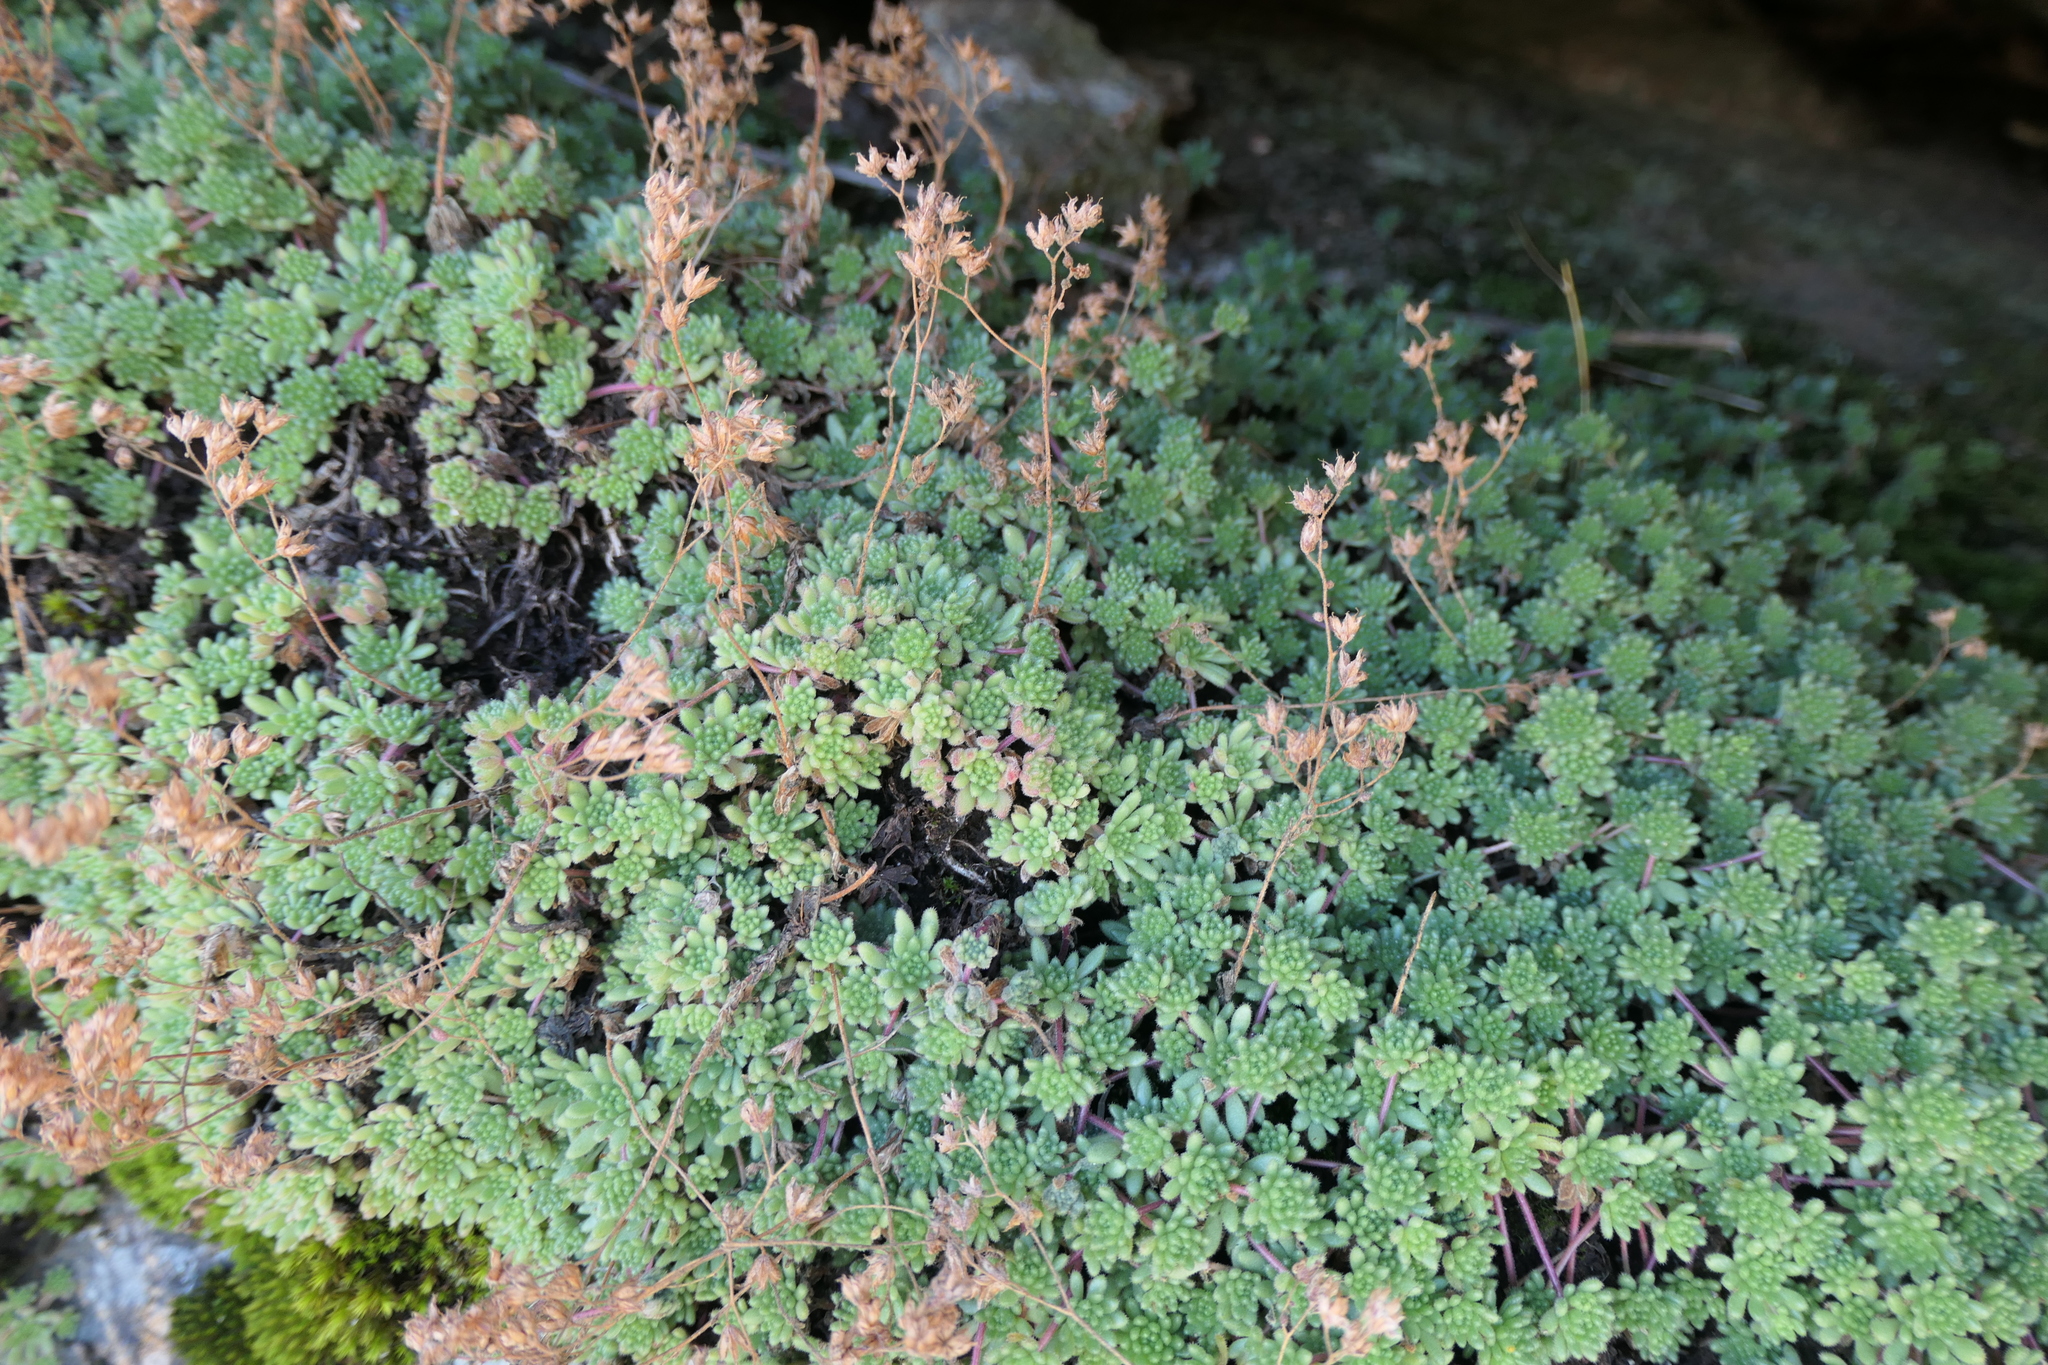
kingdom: Plantae
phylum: Tracheophyta
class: Magnoliopsida
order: Saxifragales
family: Crassulaceae
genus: Sedum
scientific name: Sedum hirsutum
